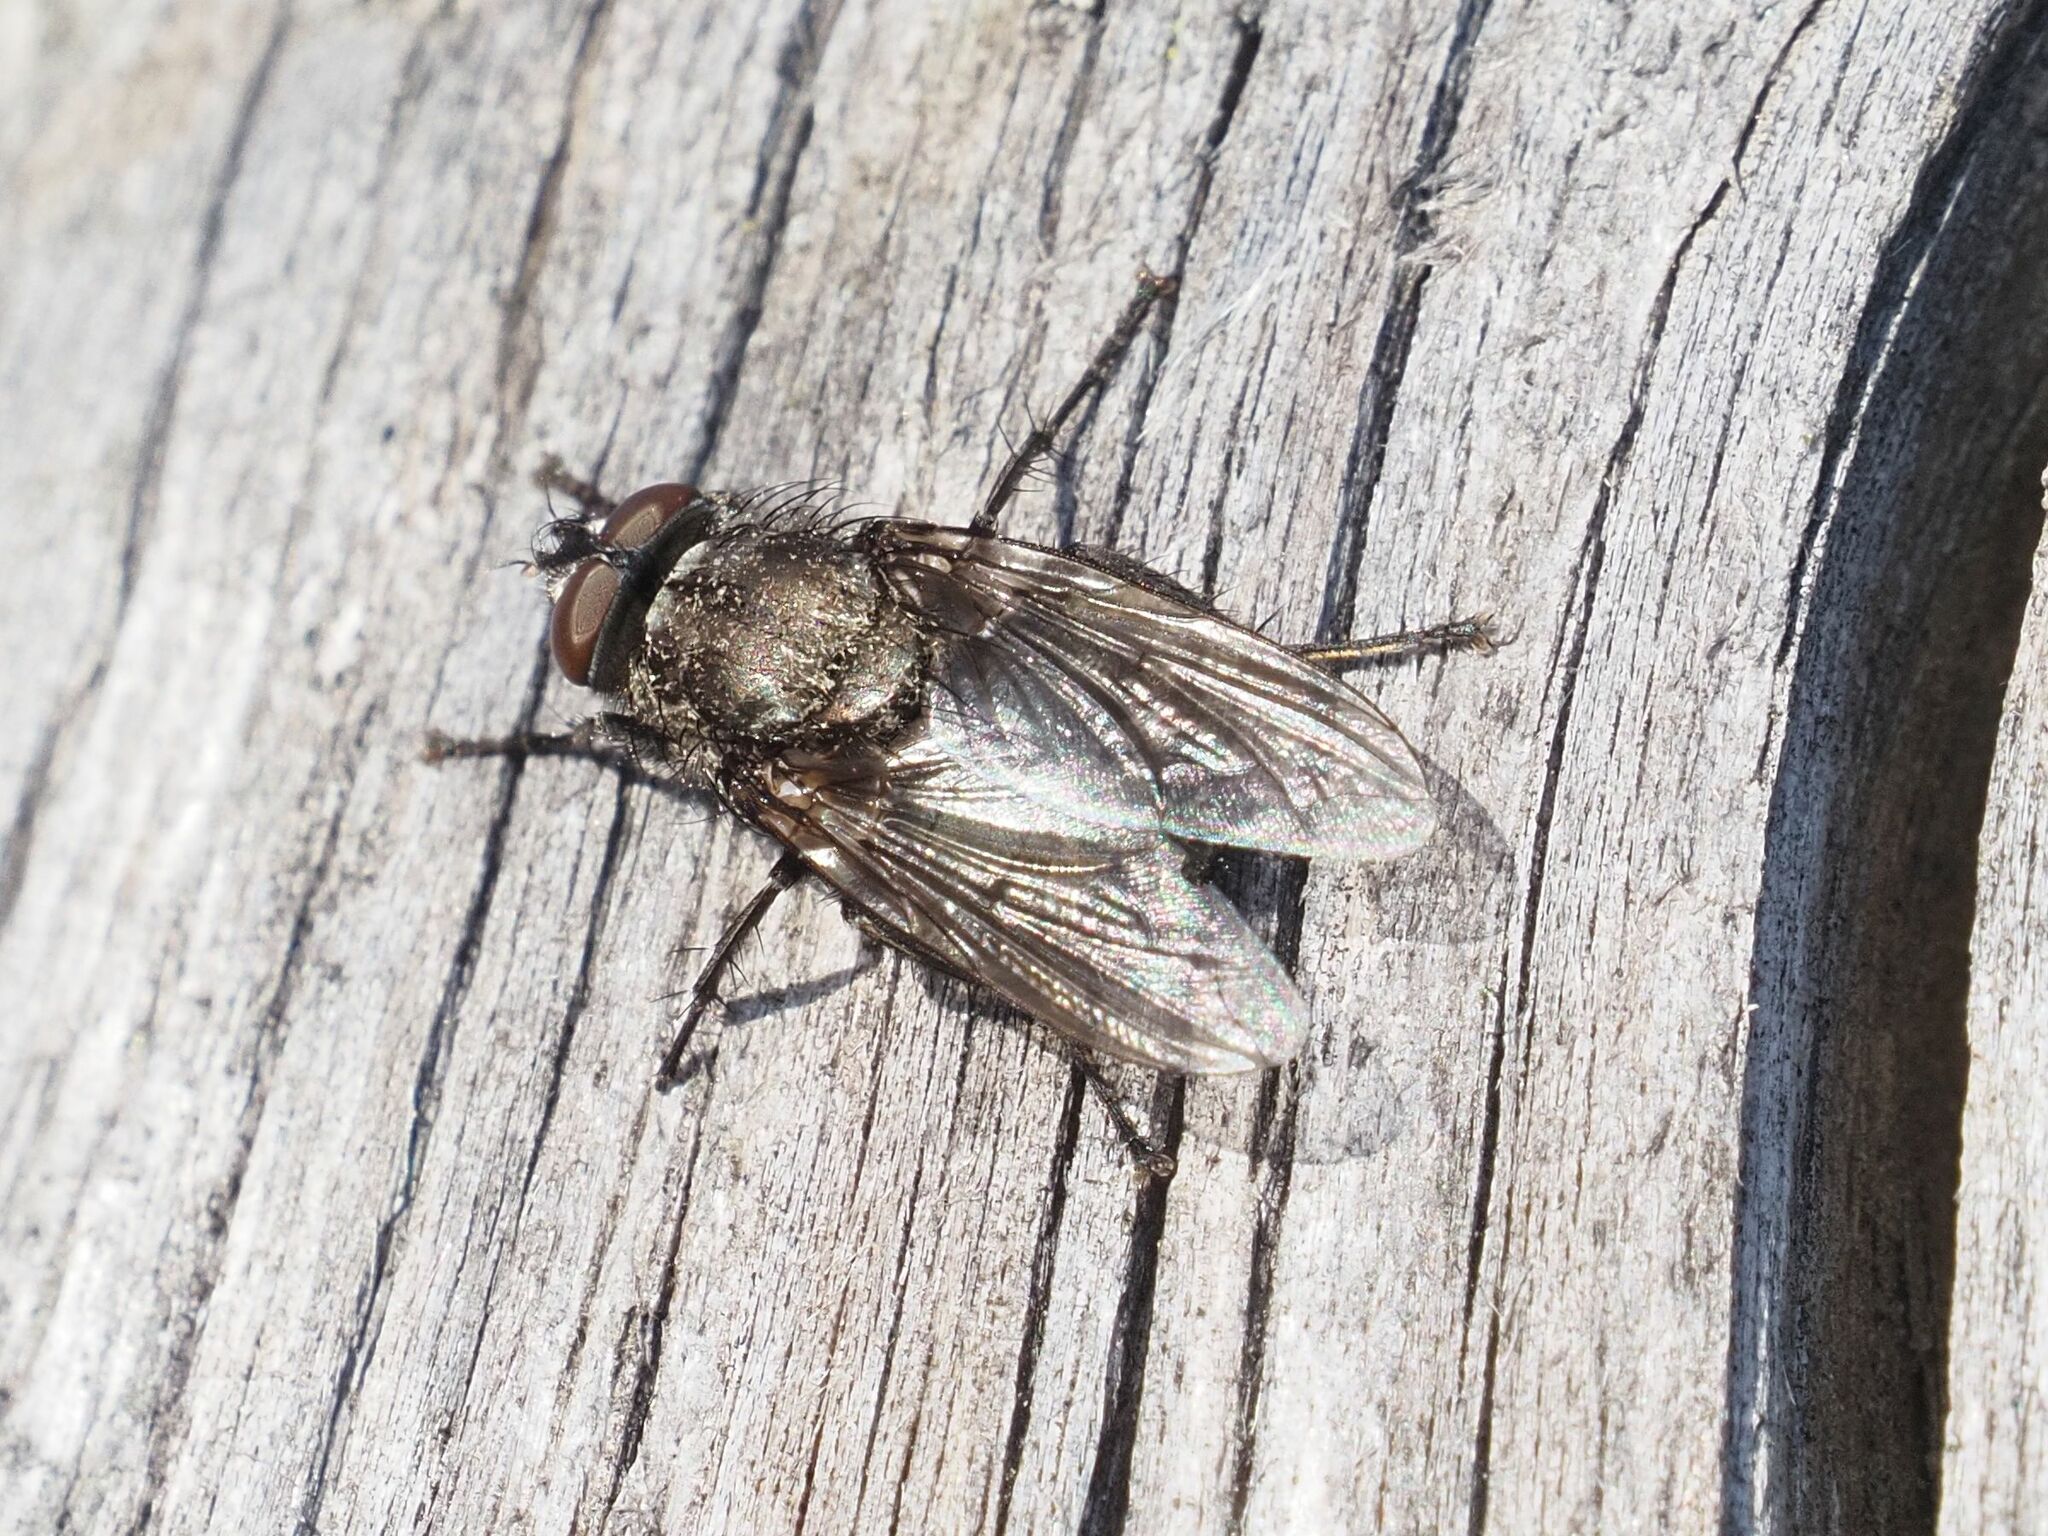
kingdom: Animalia
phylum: Arthropoda
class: Insecta
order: Diptera
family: Polleniidae
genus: Pollenia
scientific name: Pollenia vagabunda
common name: Vagabund cluster fly
